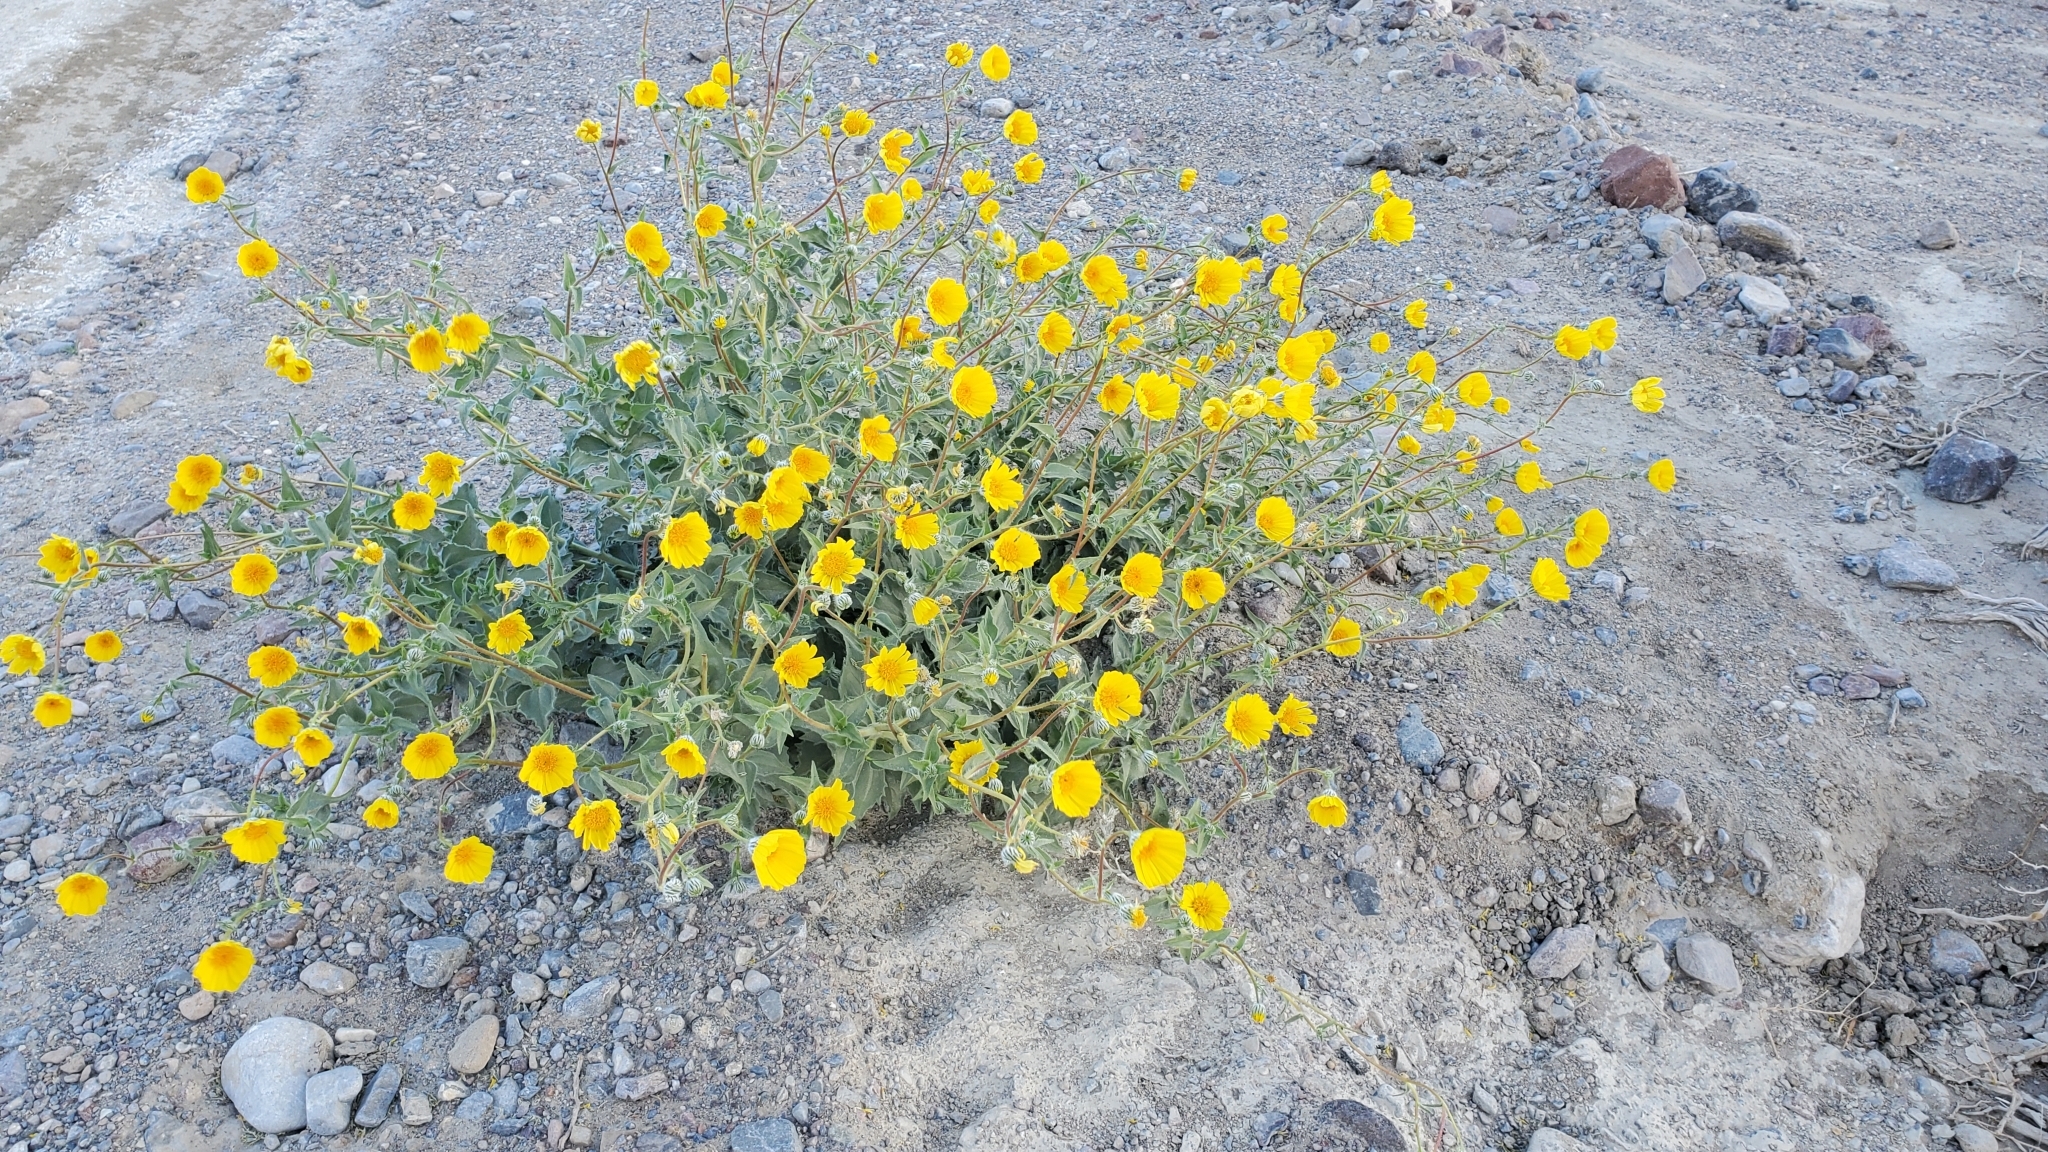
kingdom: Plantae
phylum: Tracheophyta
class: Magnoliopsida
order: Asterales
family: Asteraceae
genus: Geraea
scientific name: Geraea canescens
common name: Desert-gold
